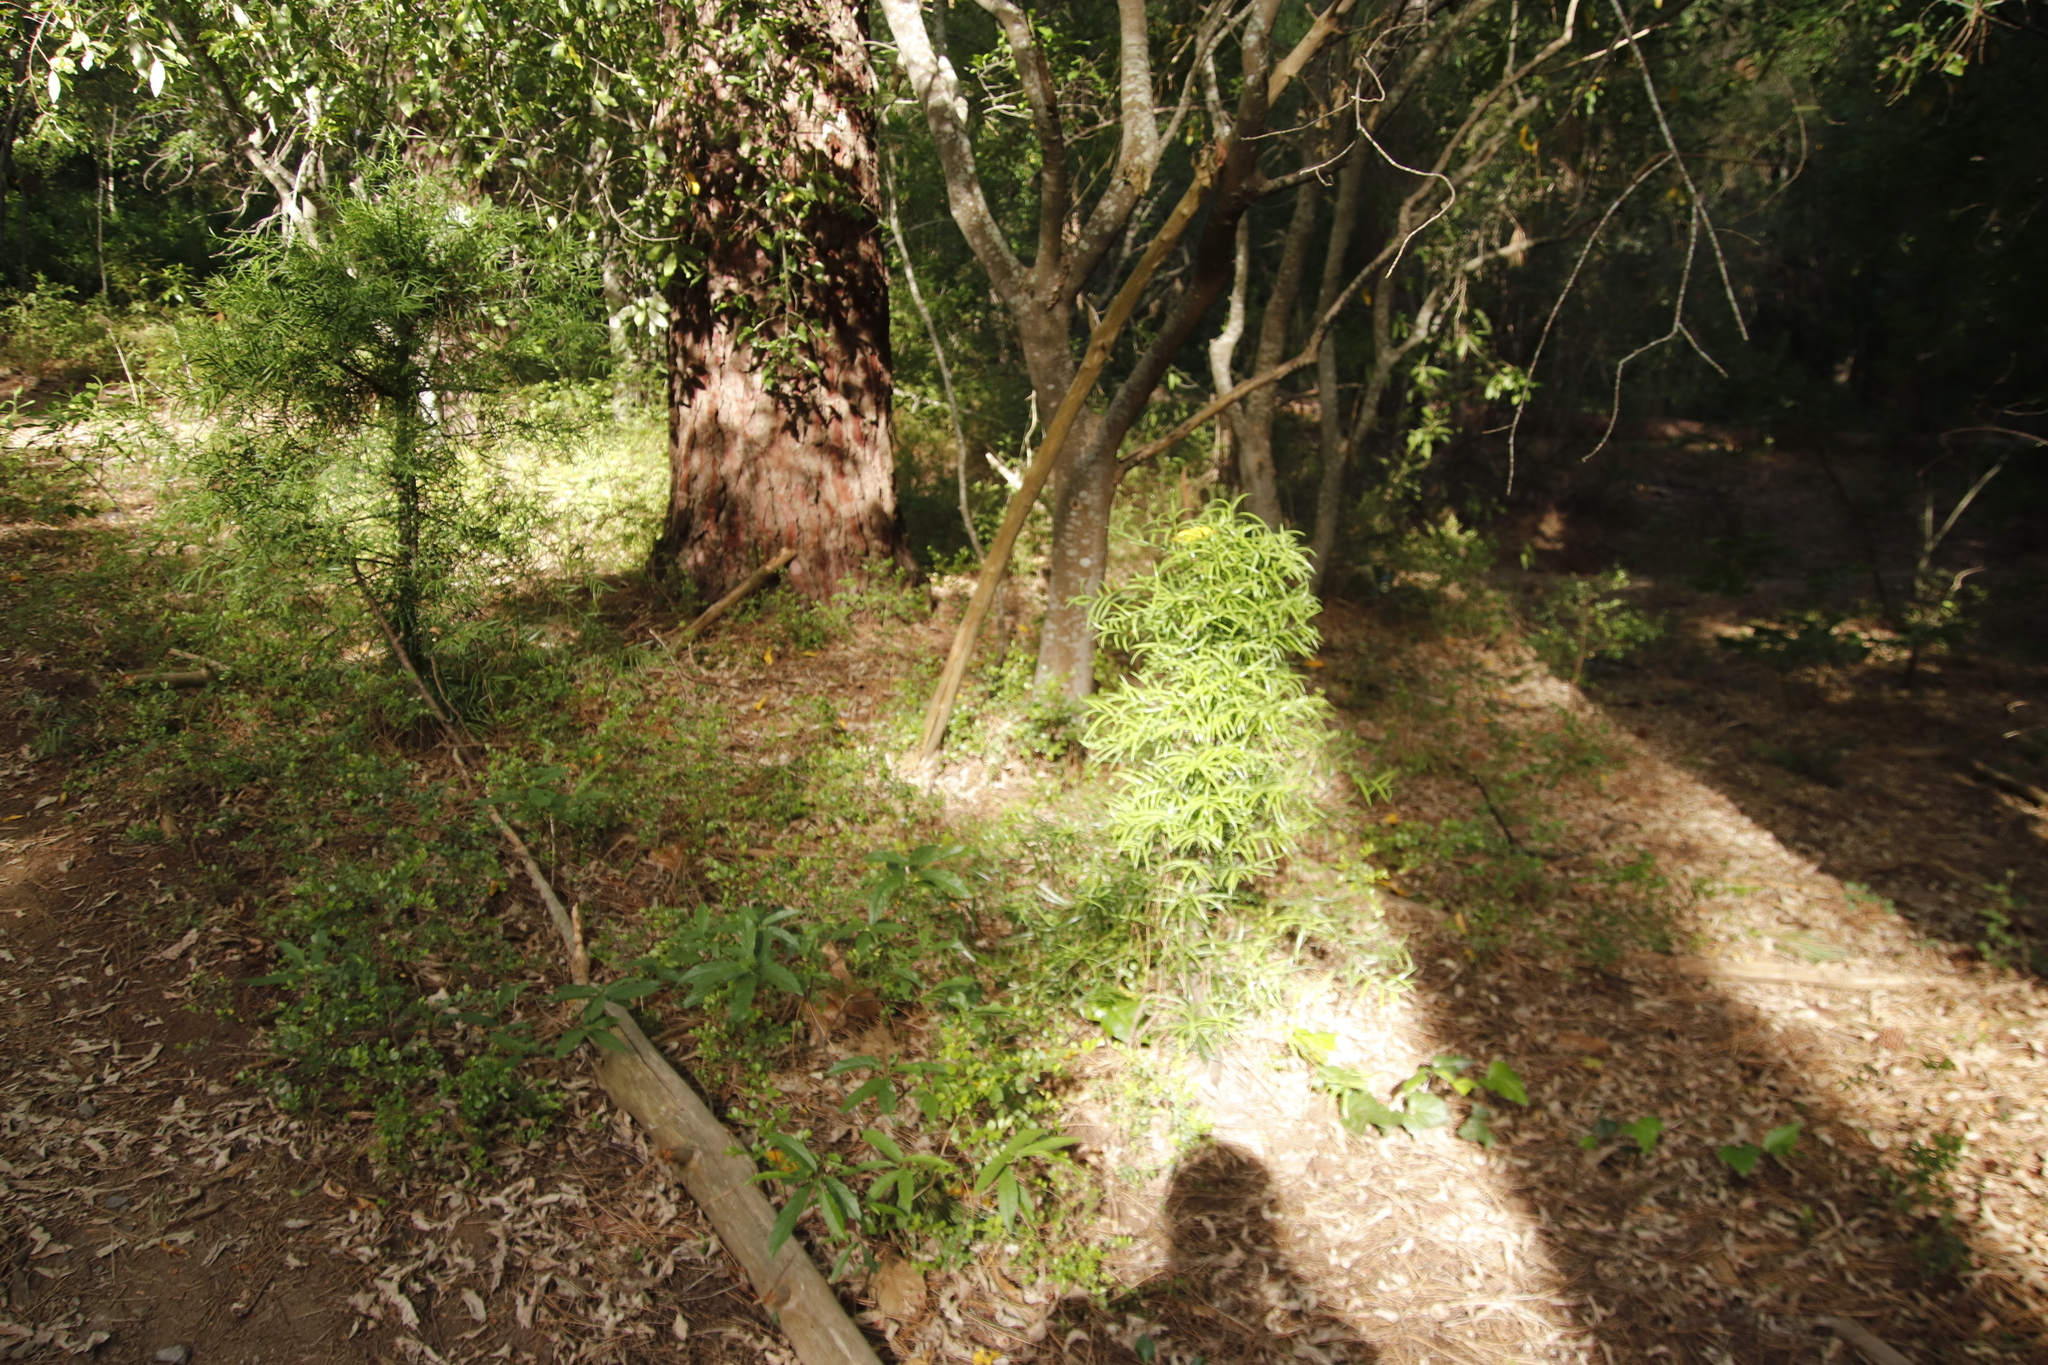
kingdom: Plantae
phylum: Tracheophyta
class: Pinopsida
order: Pinales
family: Podocarpaceae
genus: Afrocarpus
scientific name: Afrocarpus falcatus
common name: Bastard yellowwood
